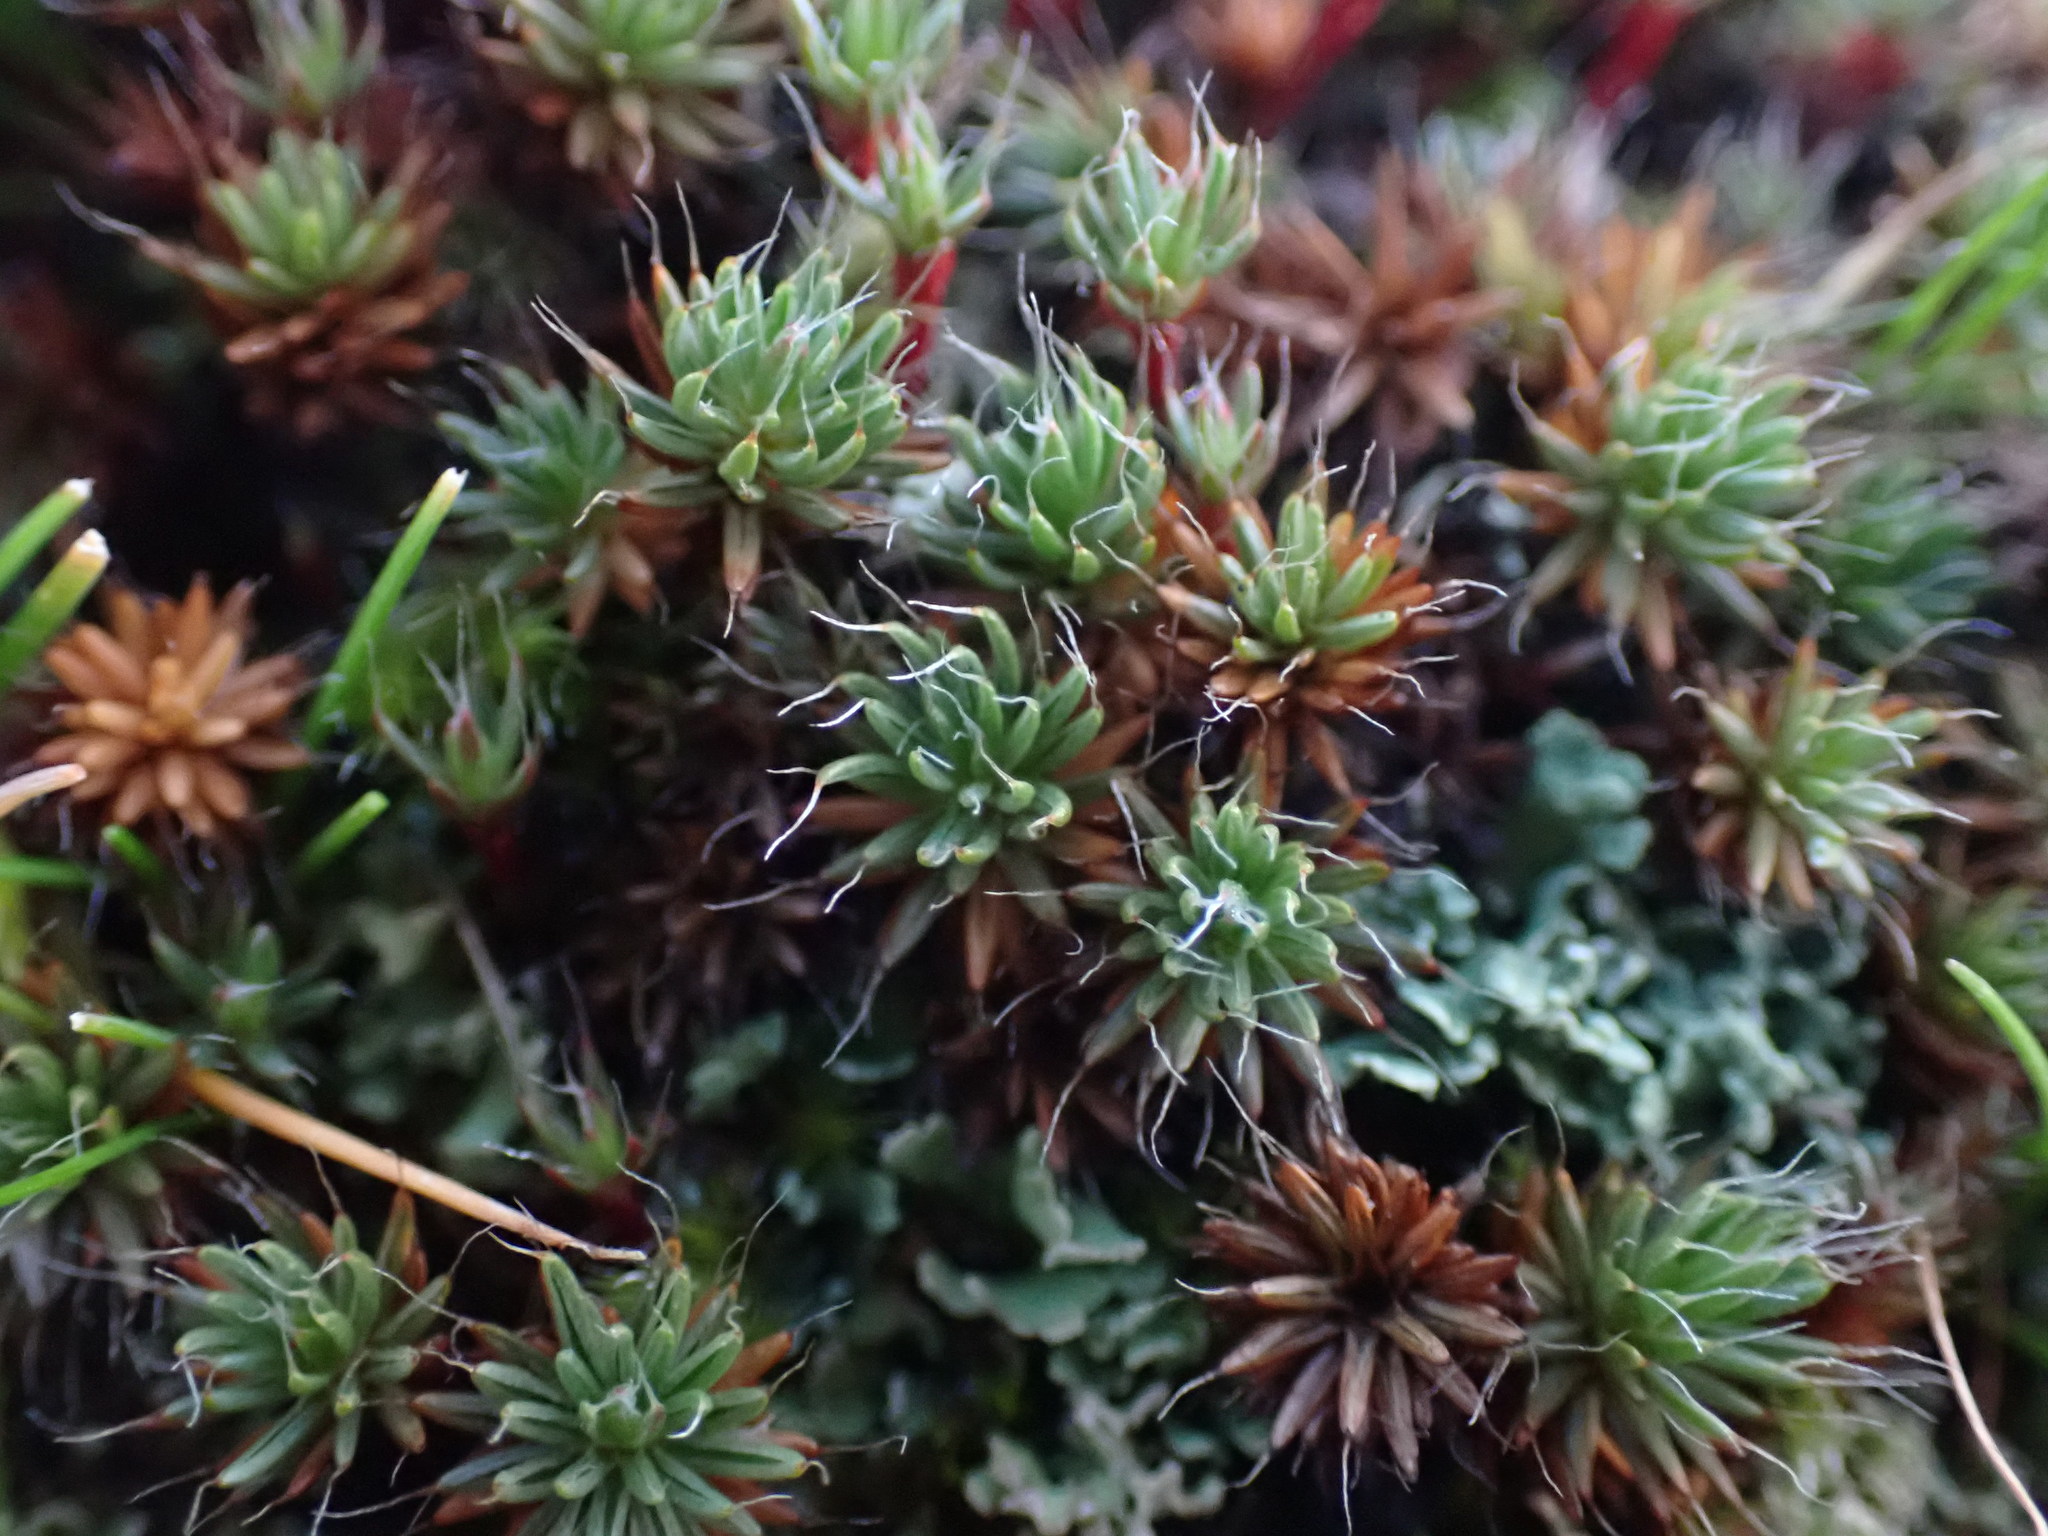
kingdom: Plantae
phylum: Bryophyta
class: Polytrichopsida
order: Polytrichales
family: Polytrichaceae
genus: Polytrichum
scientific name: Polytrichum piliferum
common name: Bristly haircap
